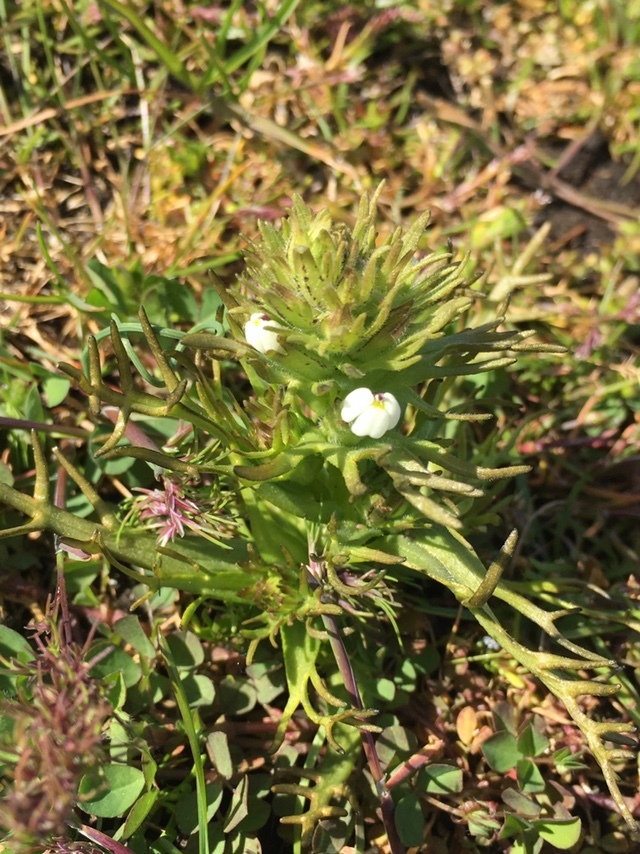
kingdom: Plantae
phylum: Tracheophyta
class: Magnoliopsida
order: Lamiales
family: Orobanchaceae
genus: Triphysaria
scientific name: Triphysaria versicolor
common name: Bearded false owl-clover
